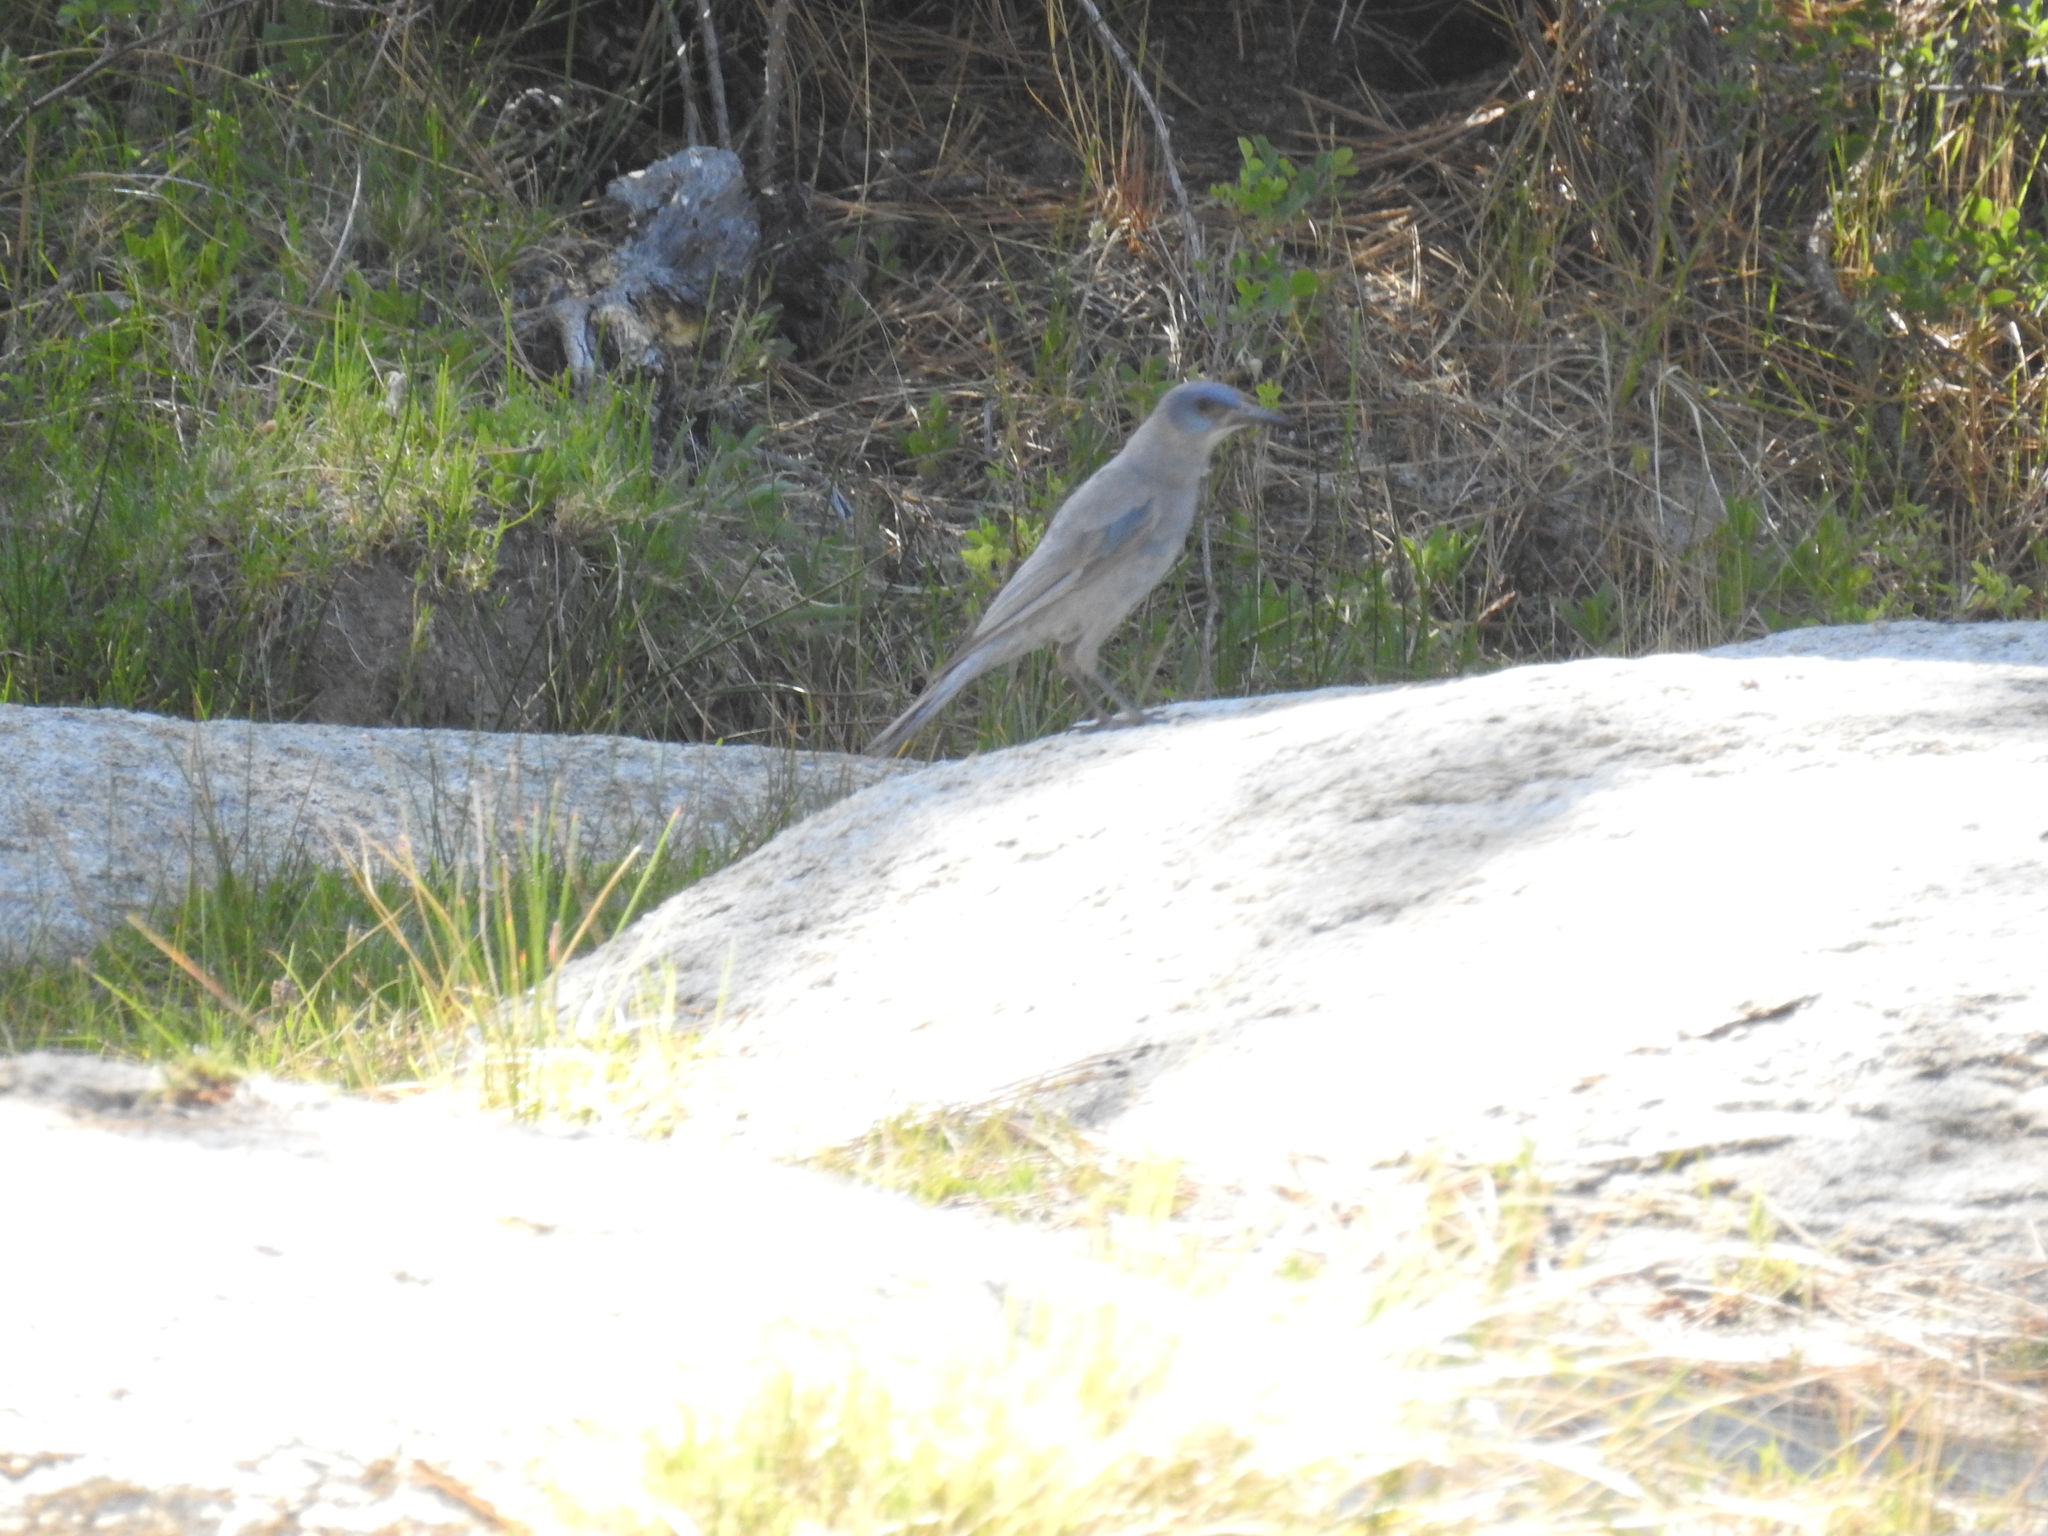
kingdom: Animalia
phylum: Chordata
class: Aves
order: Passeriformes
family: Corvidae
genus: Gymnorhinus
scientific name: Gymnorhinus cyanocephalus
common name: Pinyon jay
